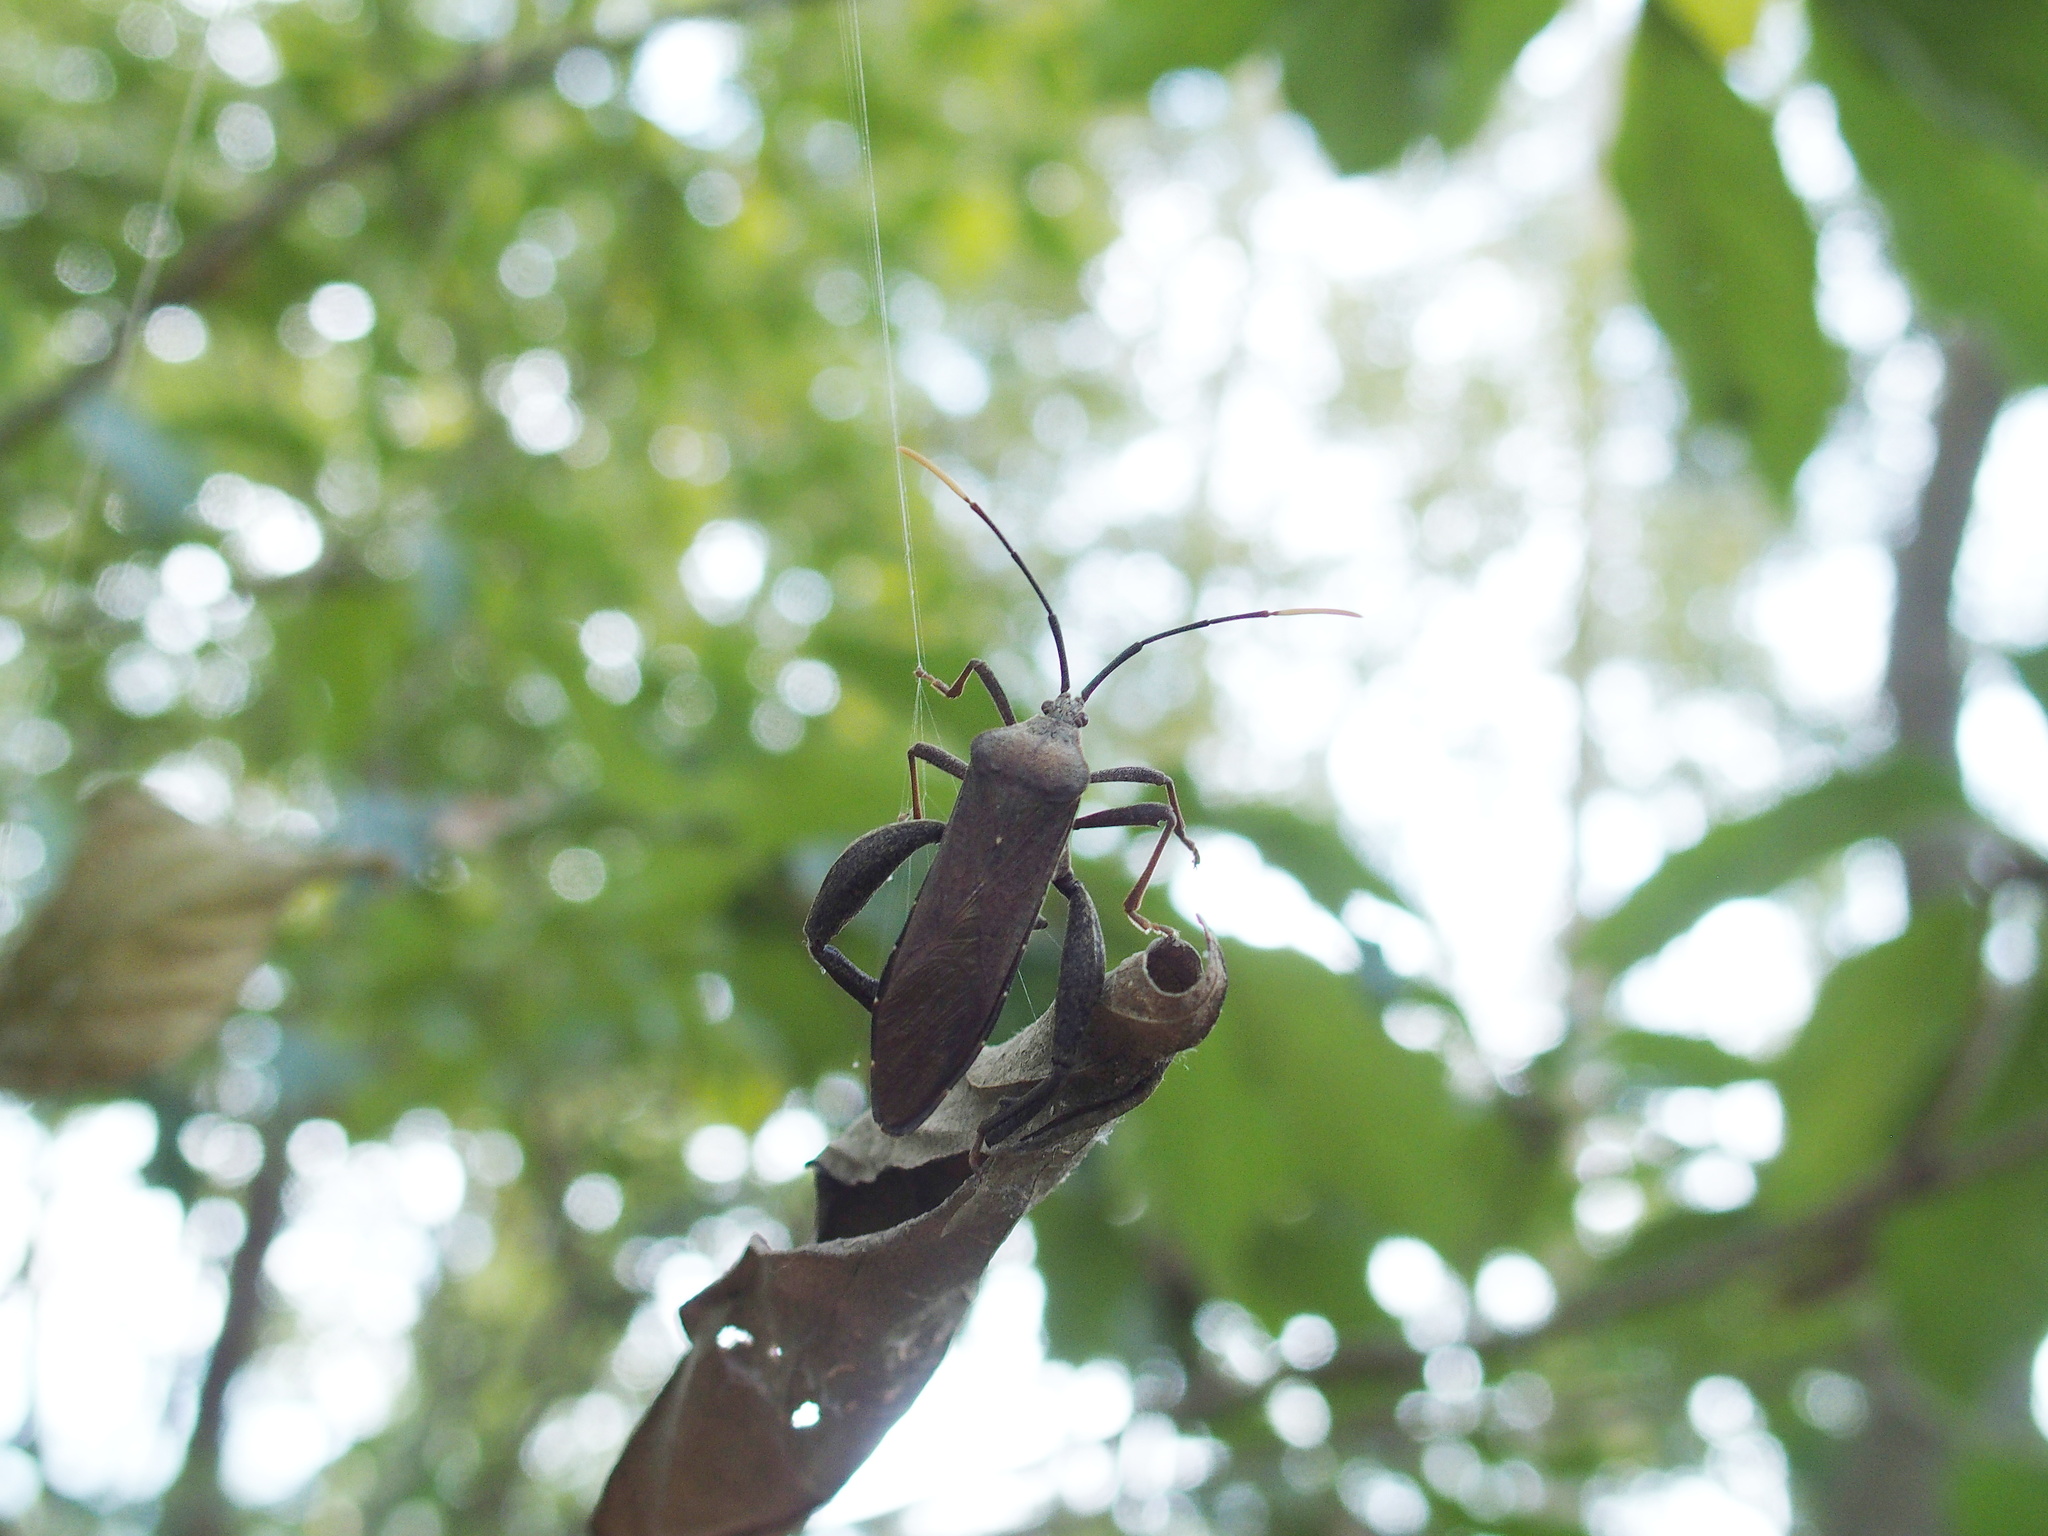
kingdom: Animalia
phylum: Arthropoda
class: Insecta
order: Hemiptera
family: Coreidae
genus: Pseudomictis
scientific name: Pseudomictis obtusispinus
